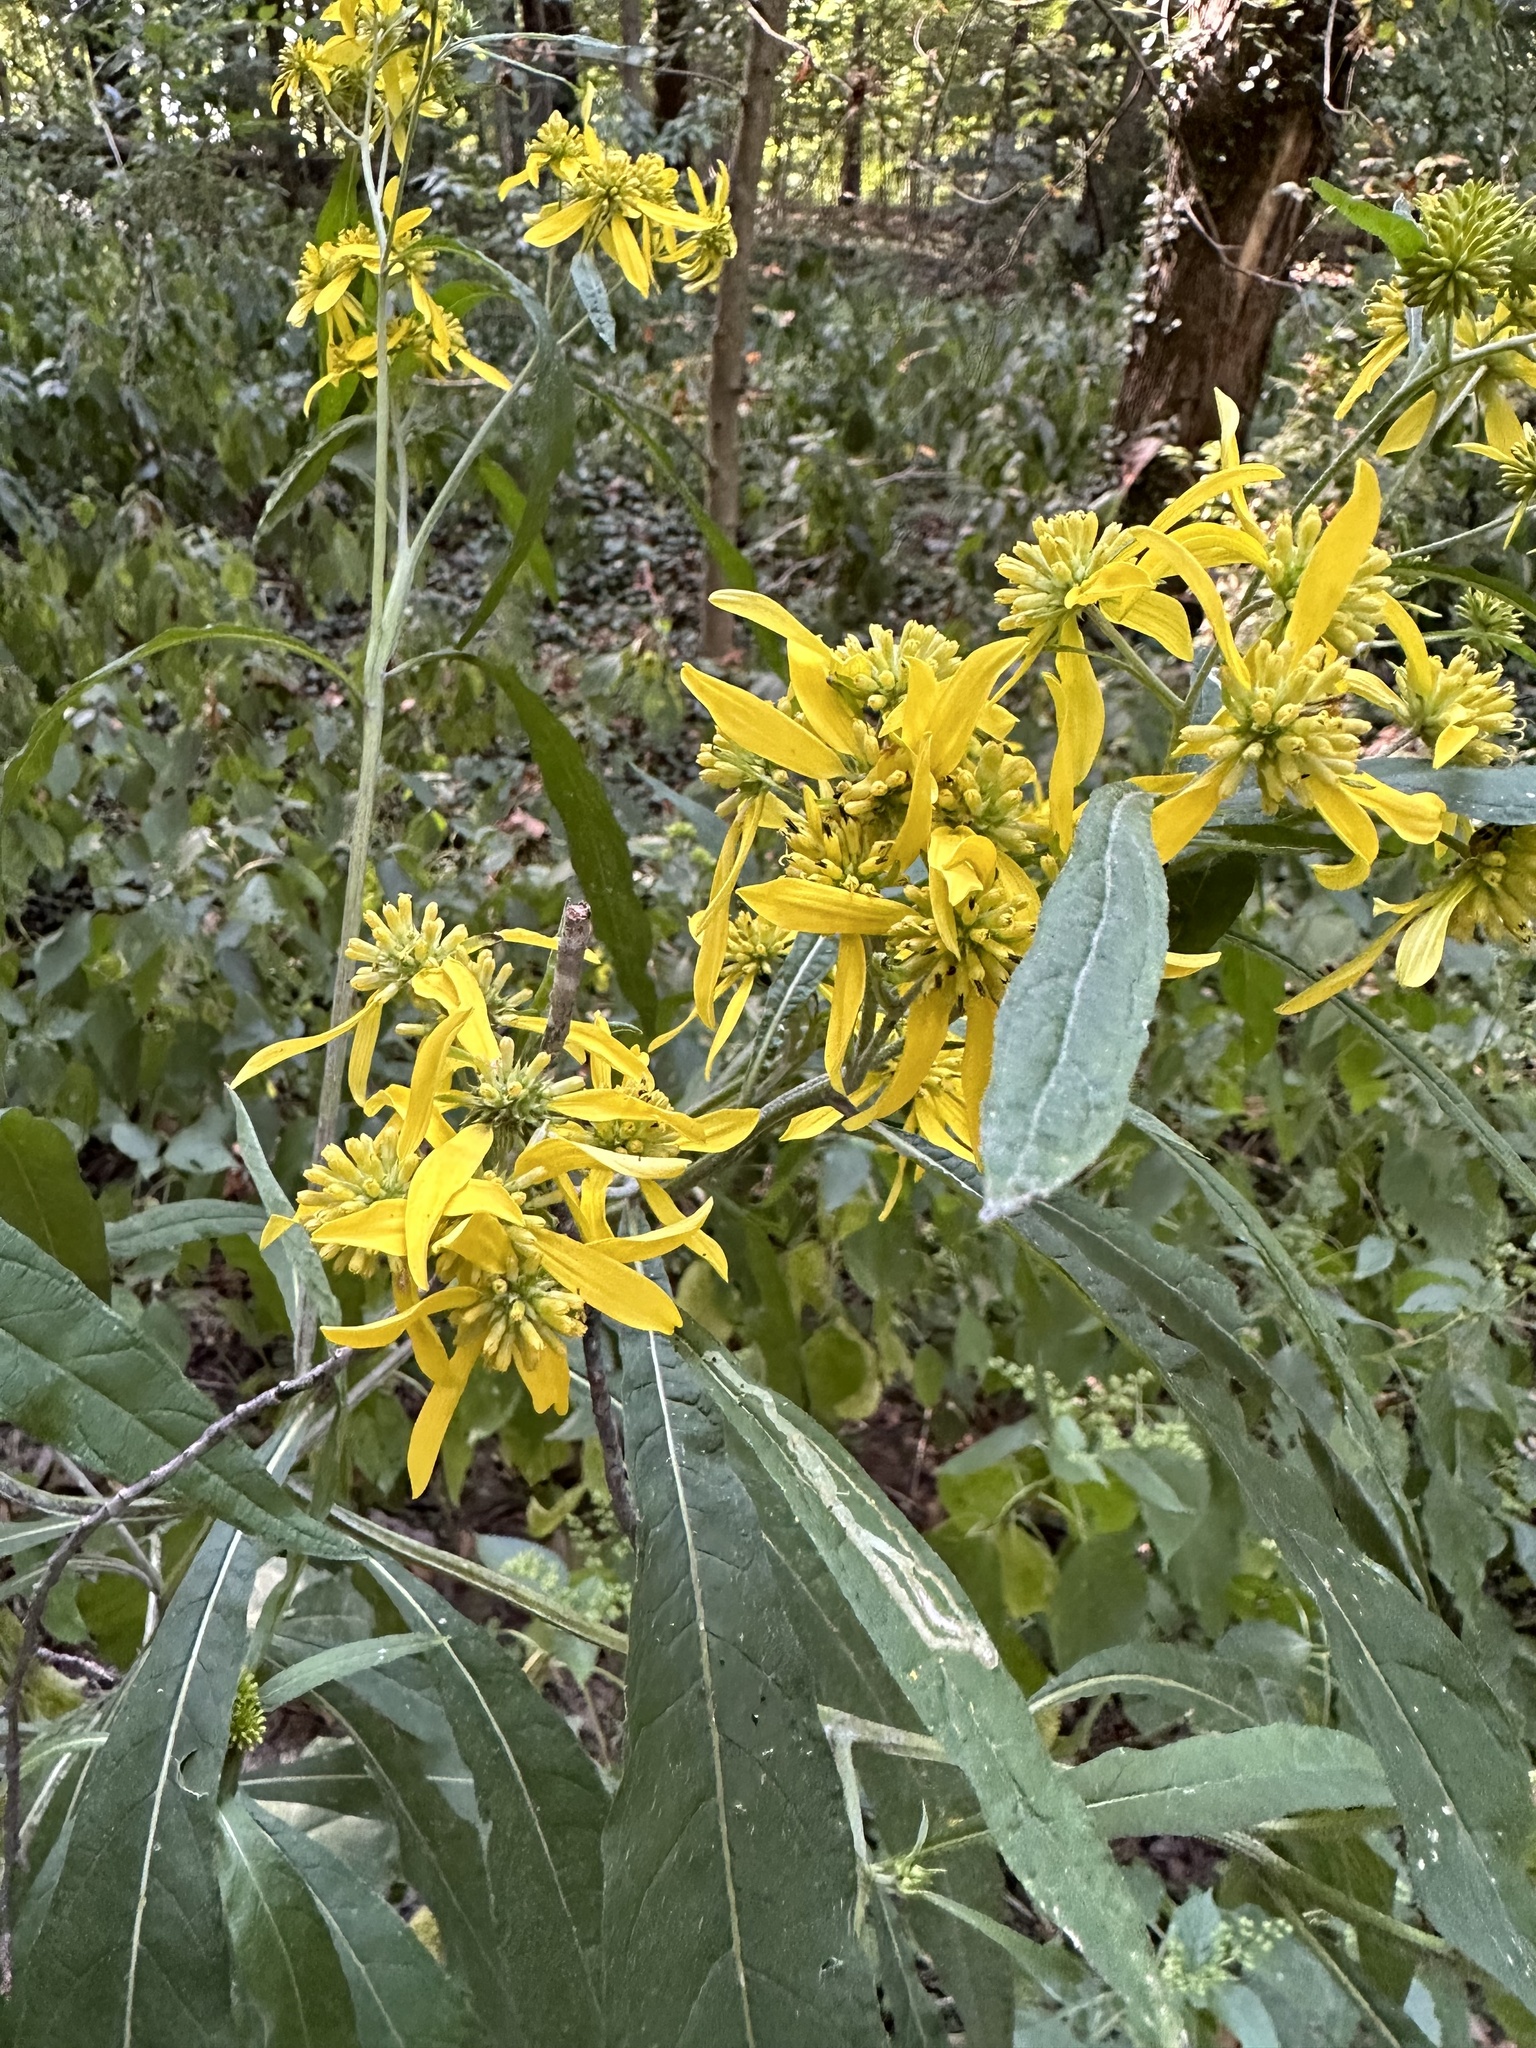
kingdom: Plantae
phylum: Tracheophyta
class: Magnoliopsida
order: Asterales
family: Asteraceae
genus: Verbesina
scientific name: Verbesina alternifolia
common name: Wingstem
